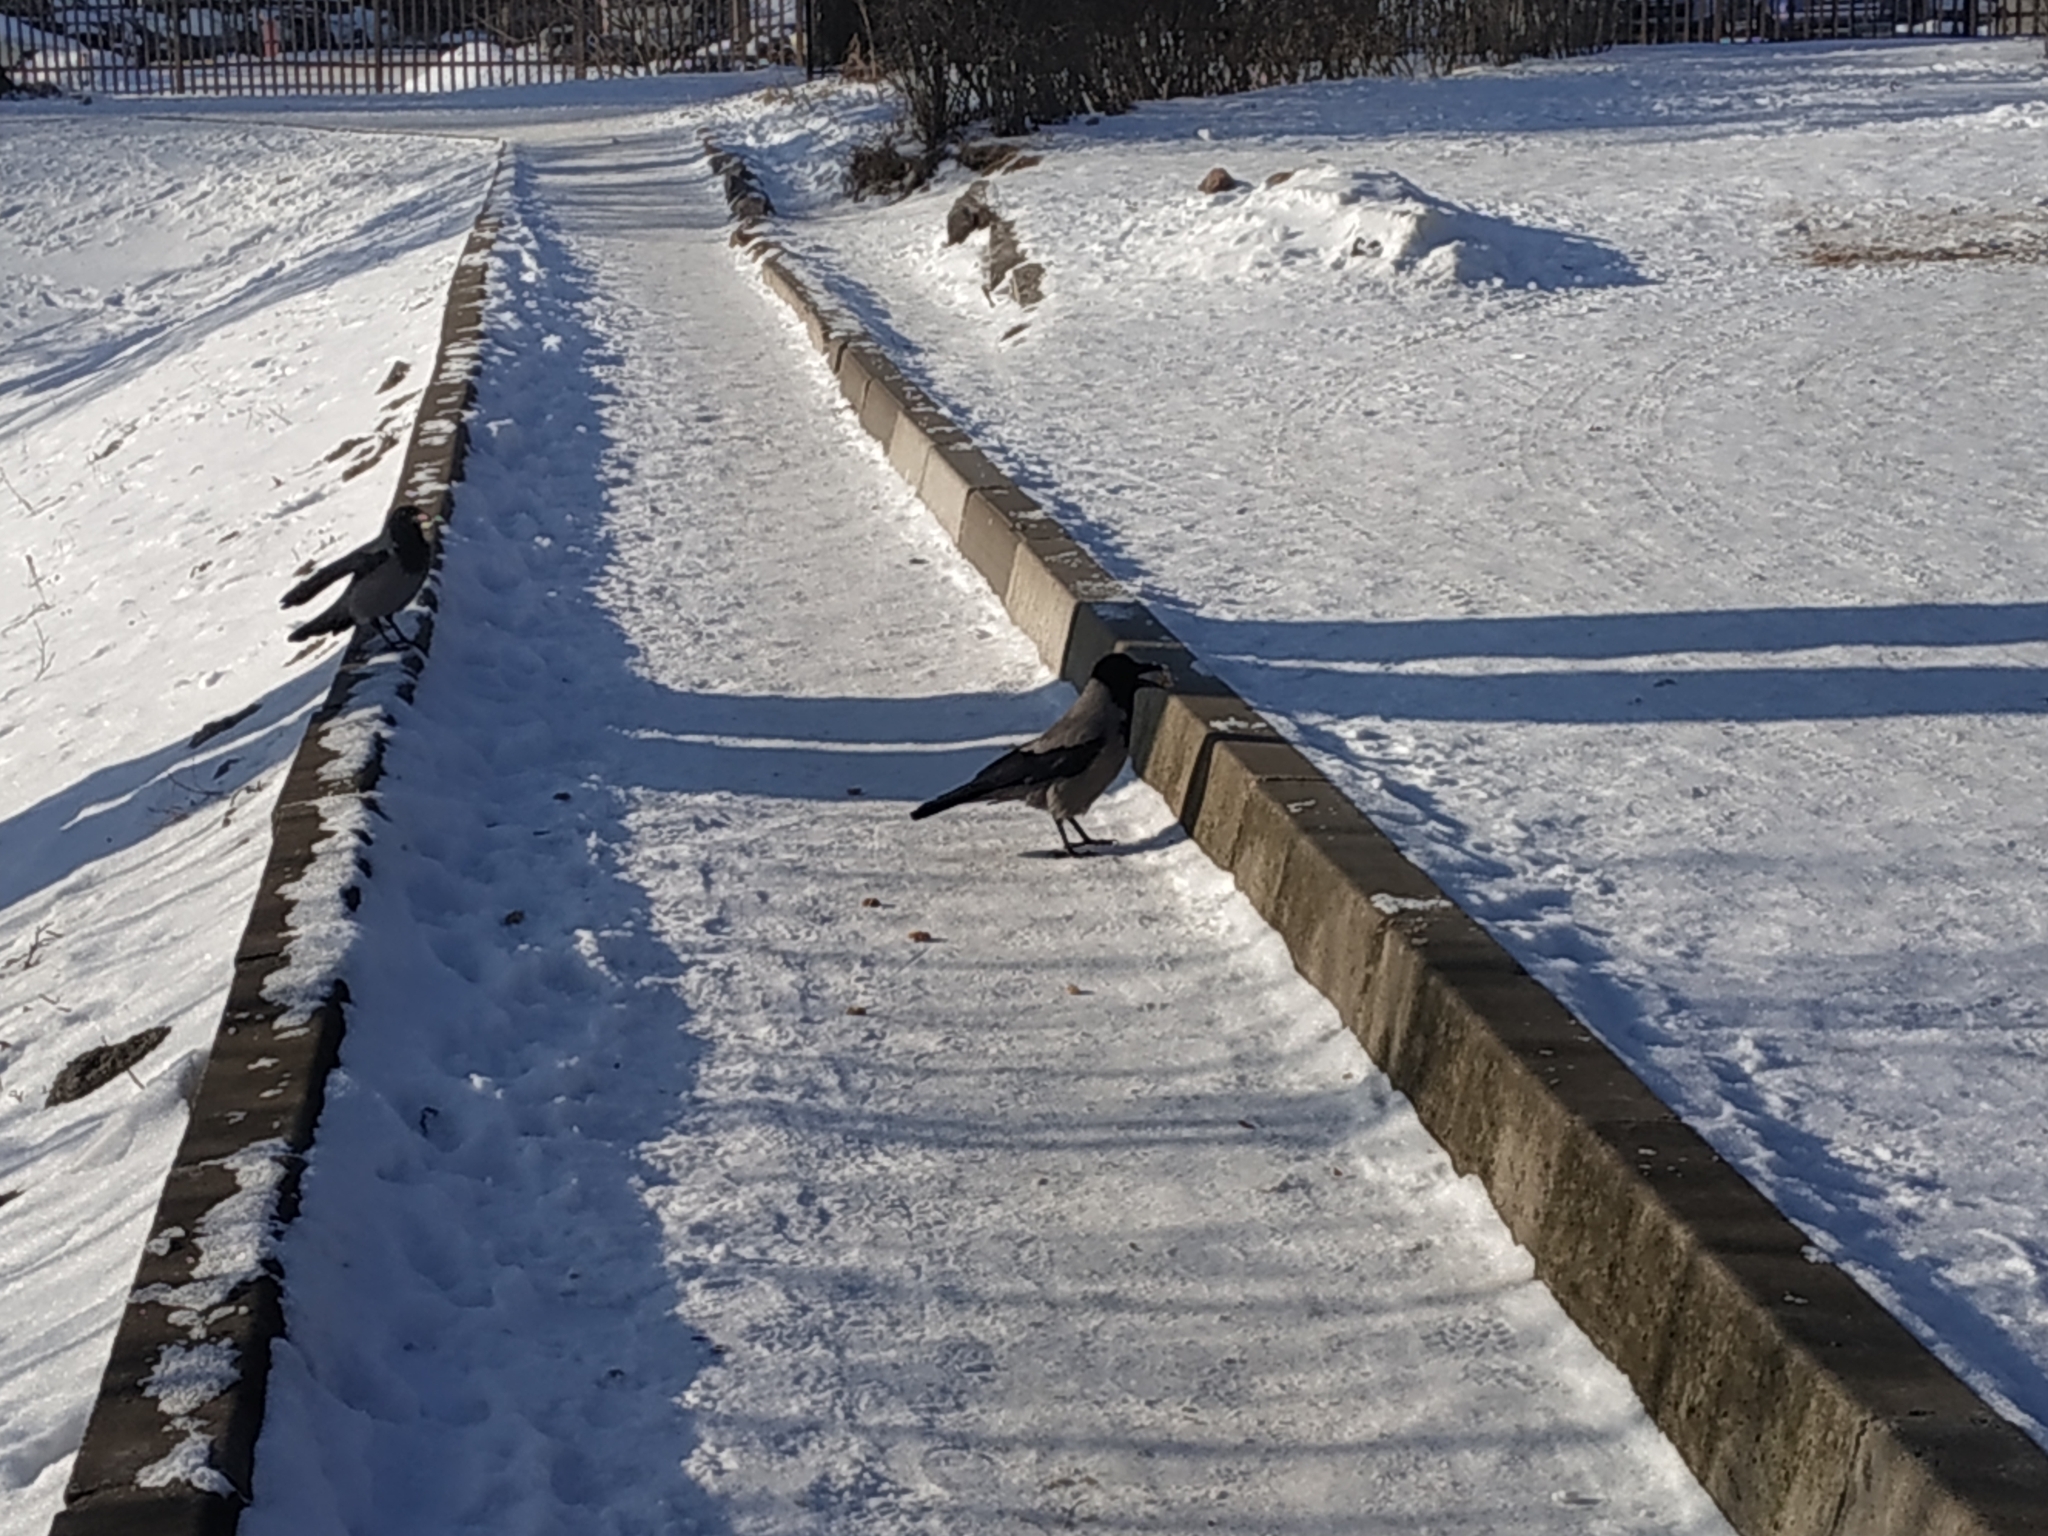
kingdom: Animalia
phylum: Chordata
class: Aves
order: Passeriformes
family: Corvidae
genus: Corvus
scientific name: Corvus cornix
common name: Hooded crow
